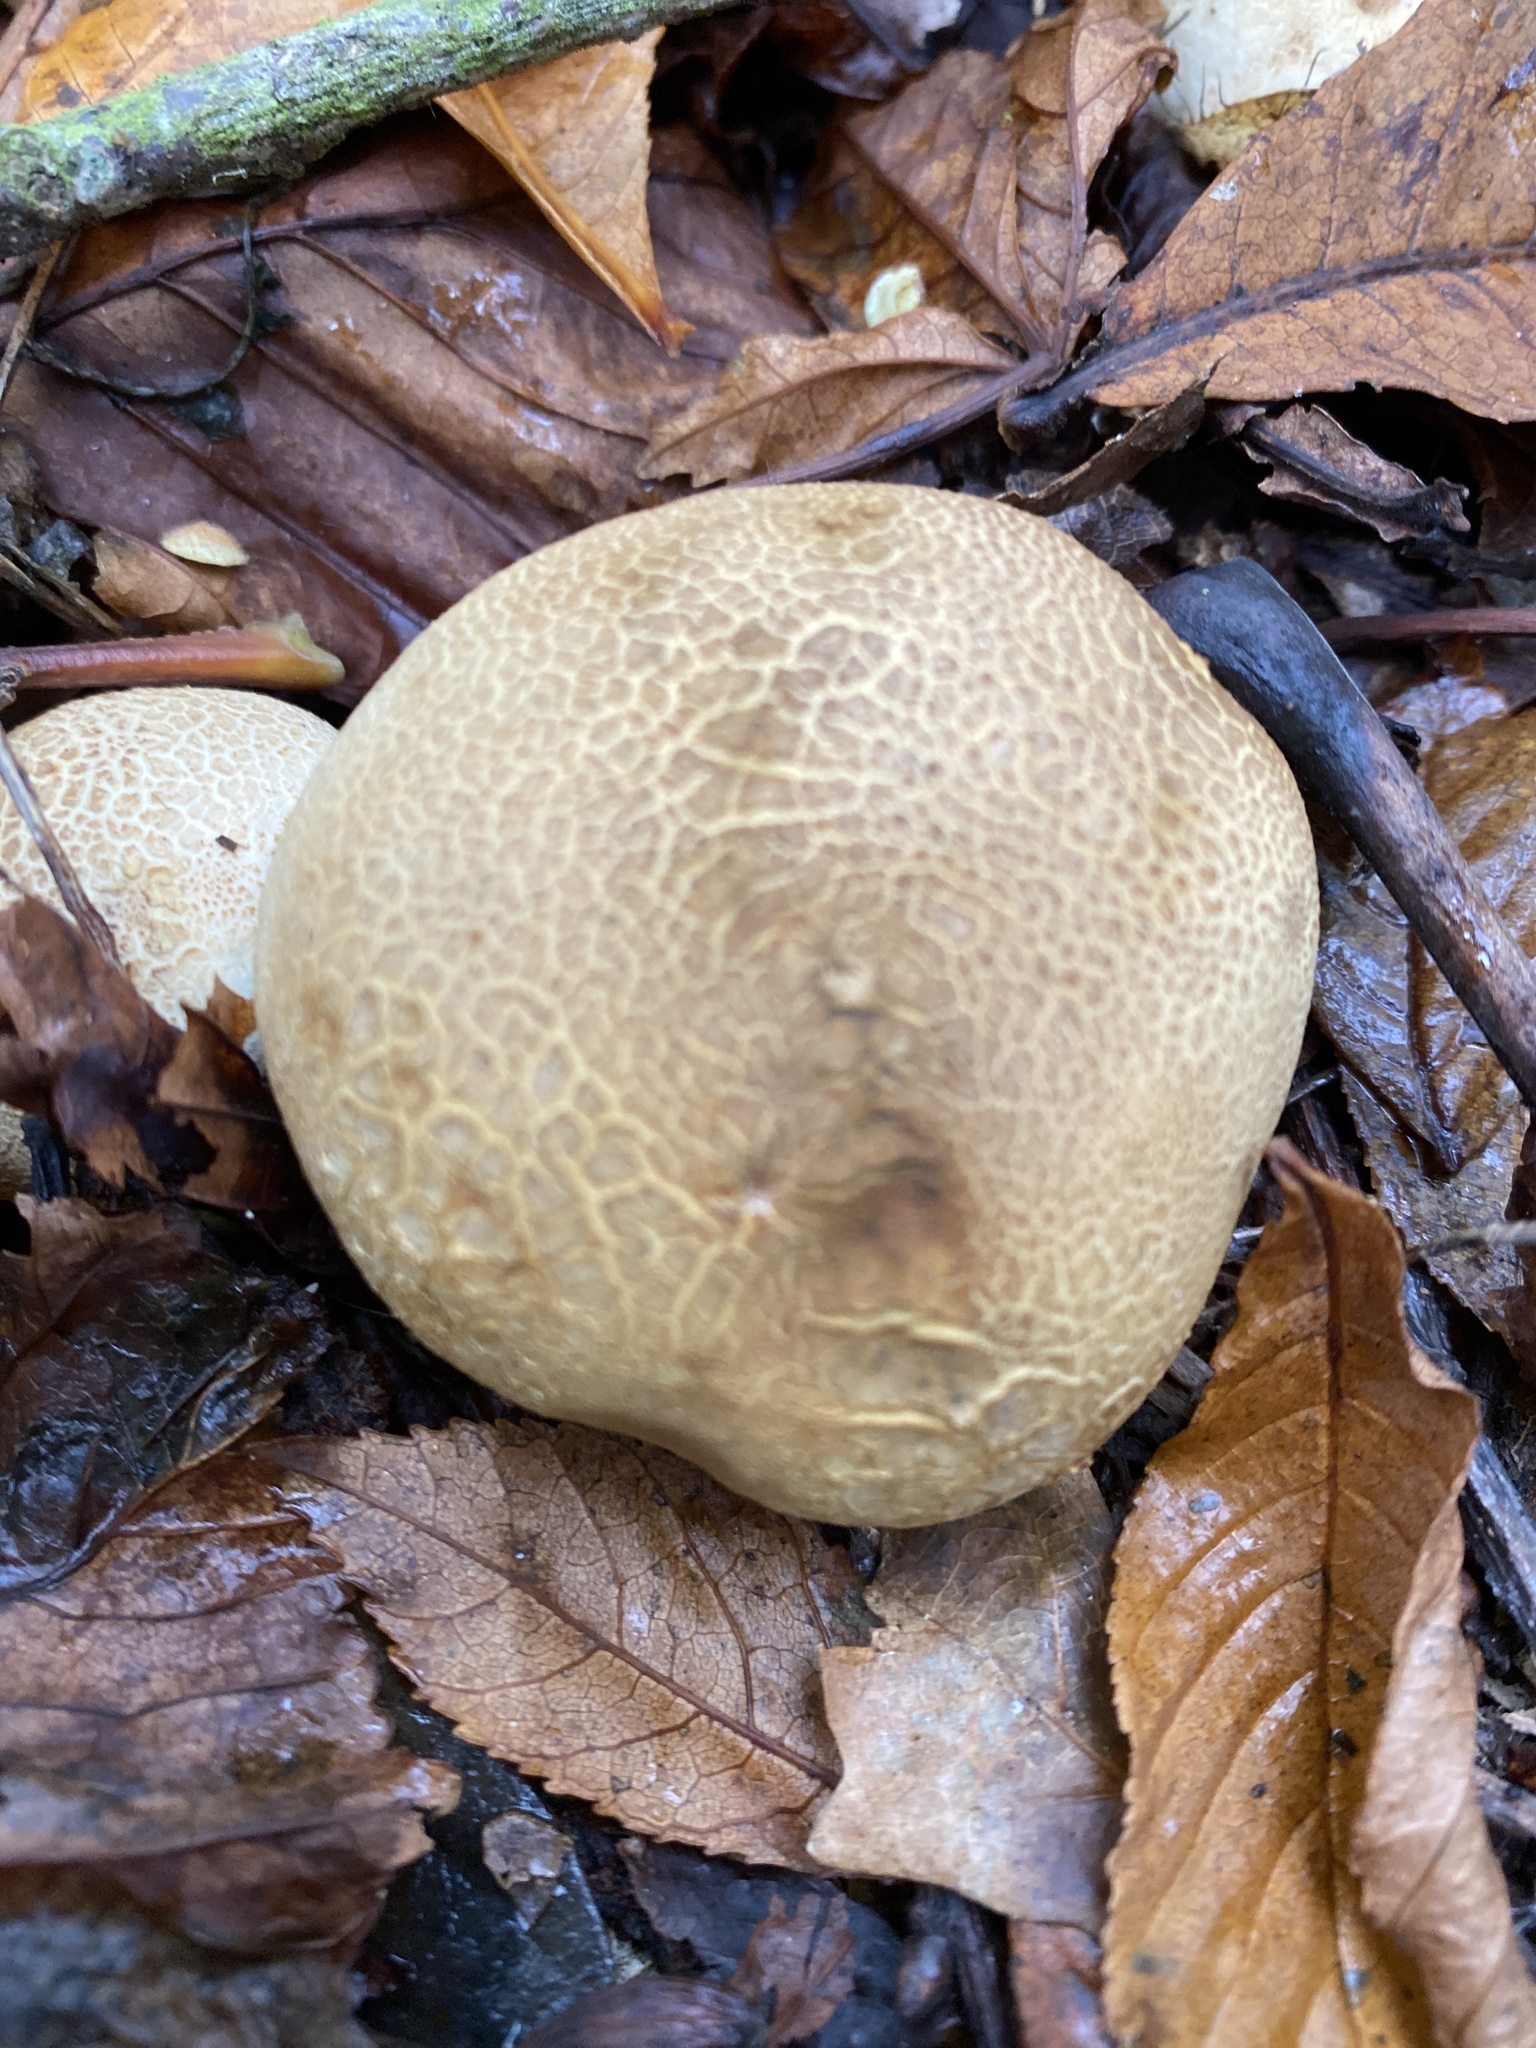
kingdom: Fungi
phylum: Basidiomycota
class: Agaricomycetes
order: Boletales
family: Sclerodermataceae
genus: Scleroderma
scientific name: Scleroderma citrinum
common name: Common earthball
